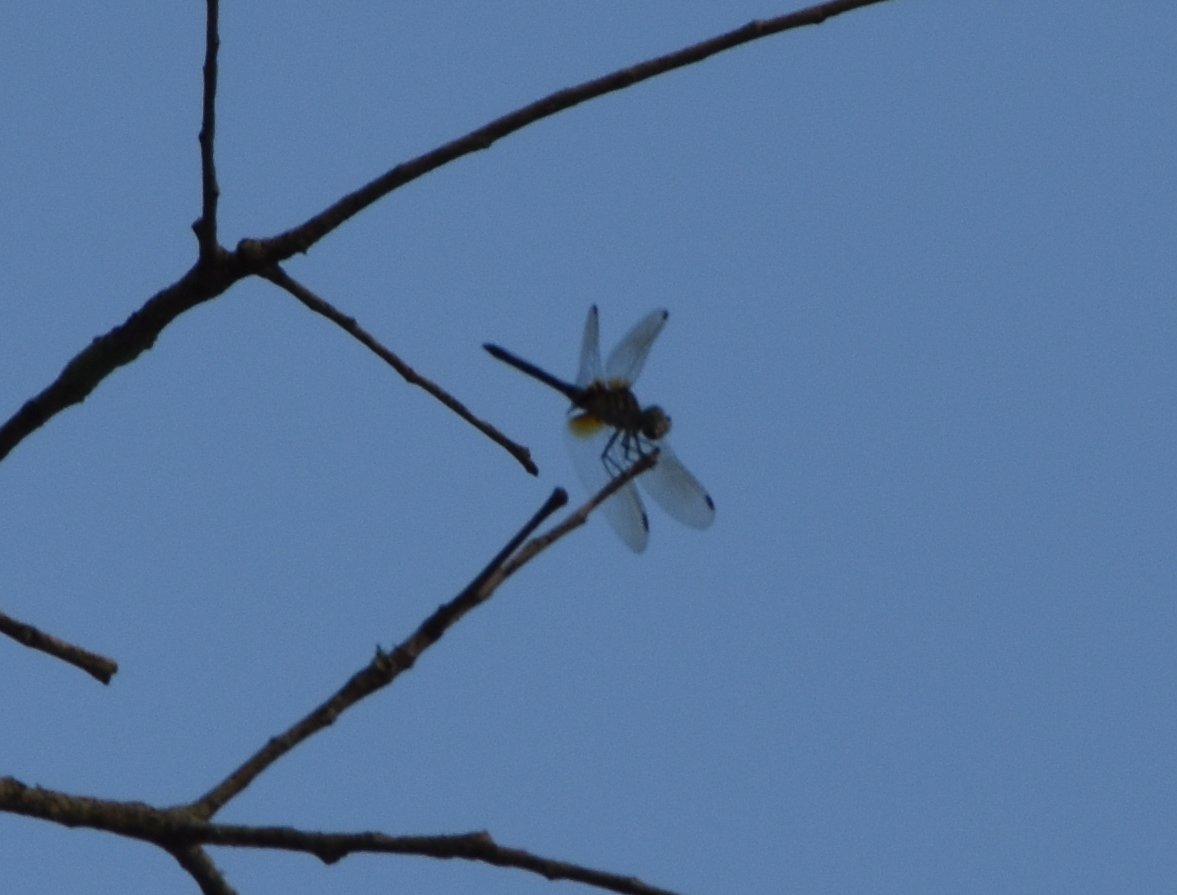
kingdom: Animalia
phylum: Arthropoda
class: Insecta
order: Odonata
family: Libellulidae
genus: Pachydiplax
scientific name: Pachydiplax longipennis
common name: Blue dasher
